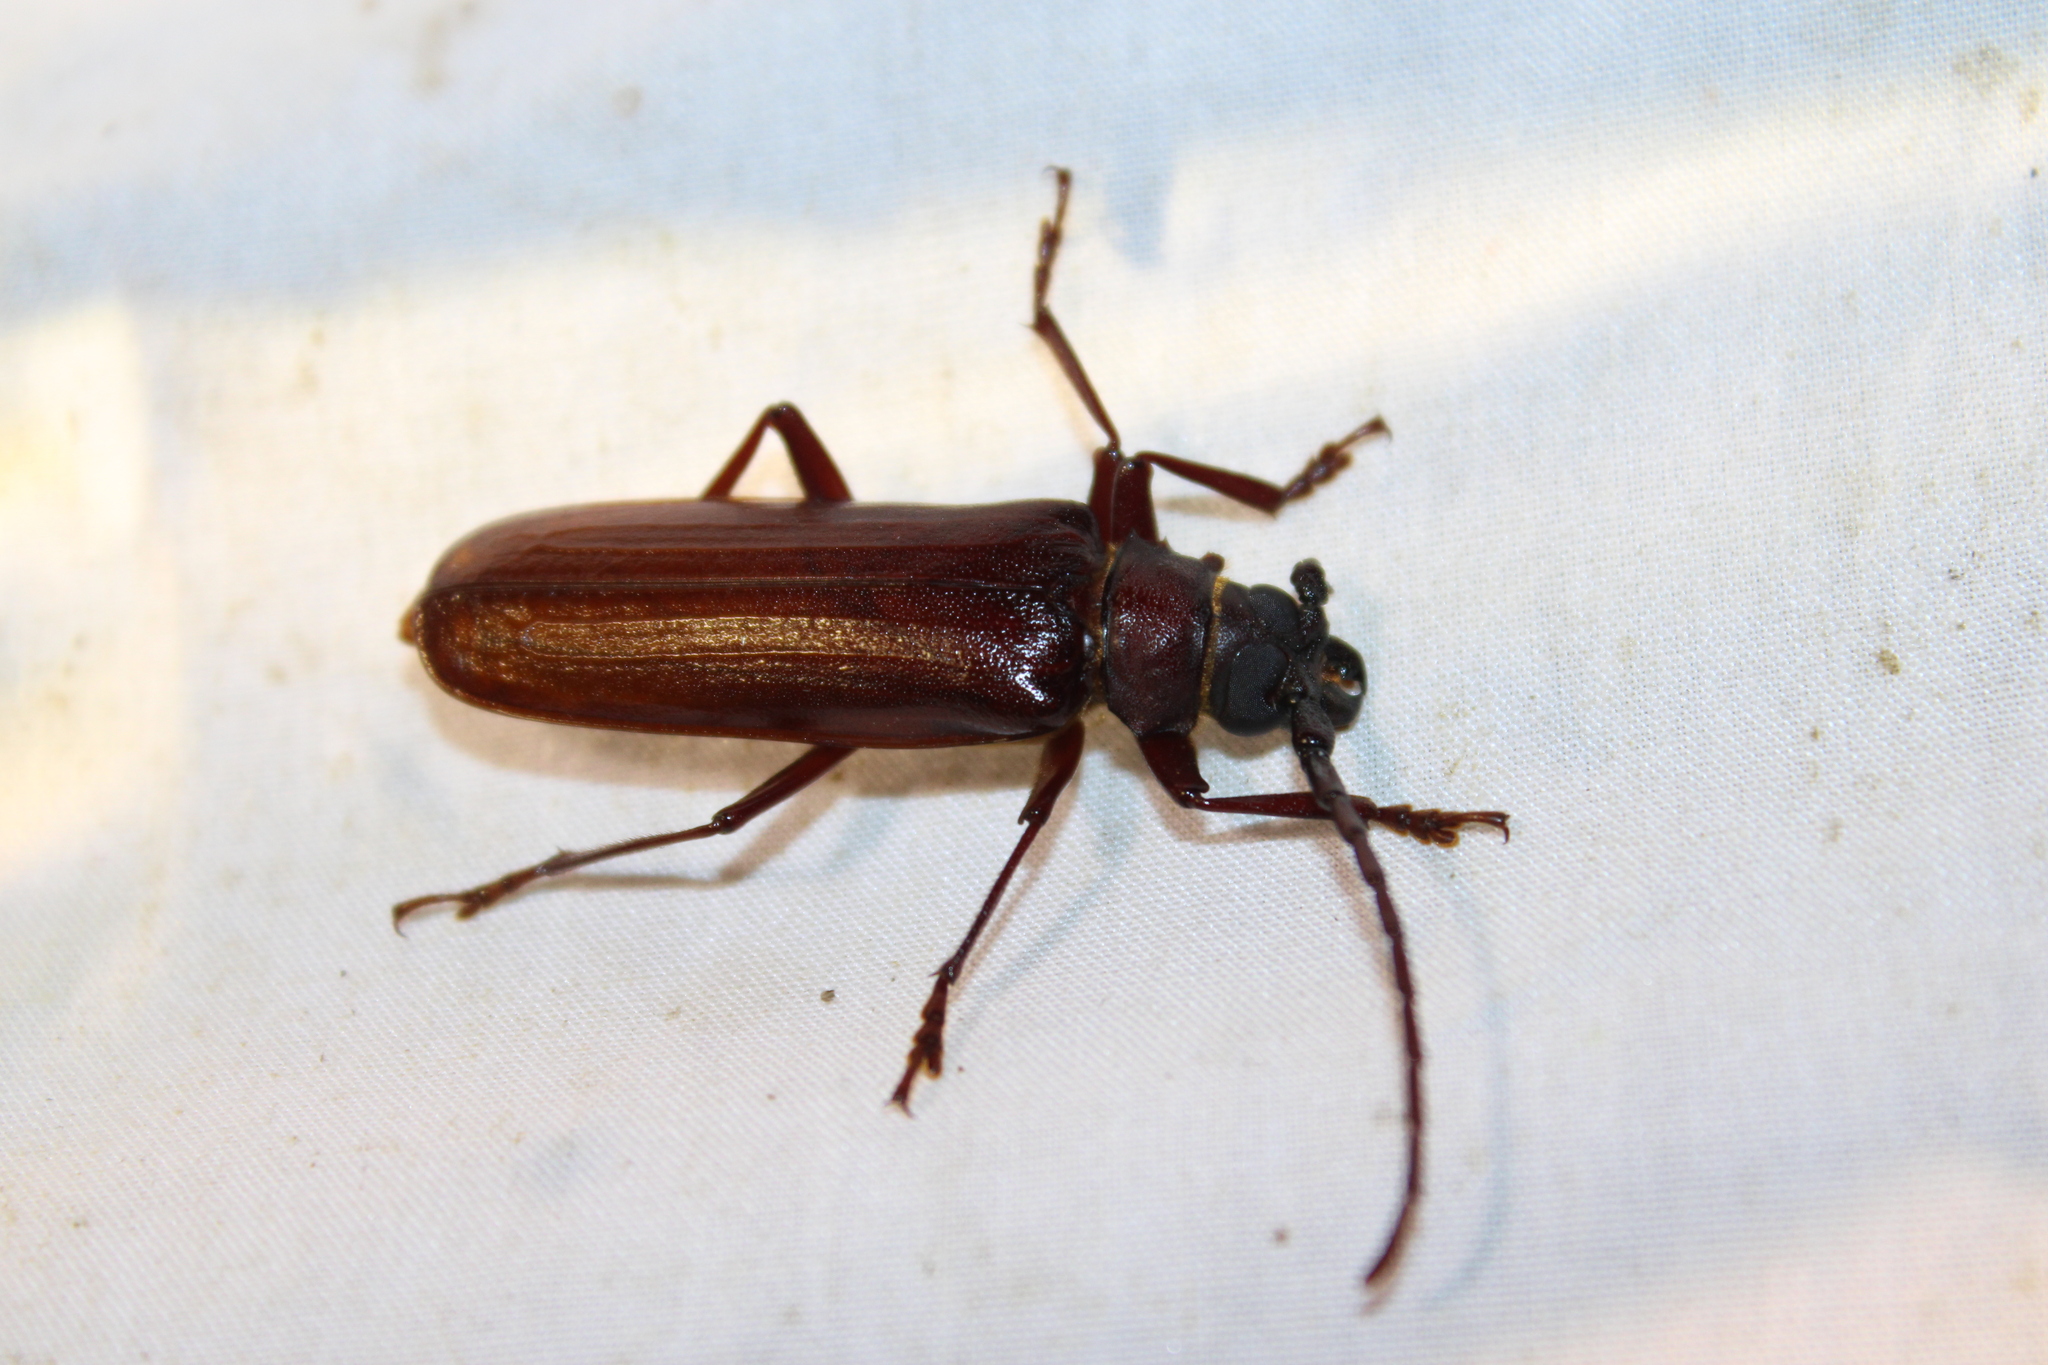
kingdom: Animalia
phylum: Arthropoda
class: Insecta
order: Coleoptera
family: Cerambycidae
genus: Orthosoma
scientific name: Orthosoma brunneum
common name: Brown prionid beetle
